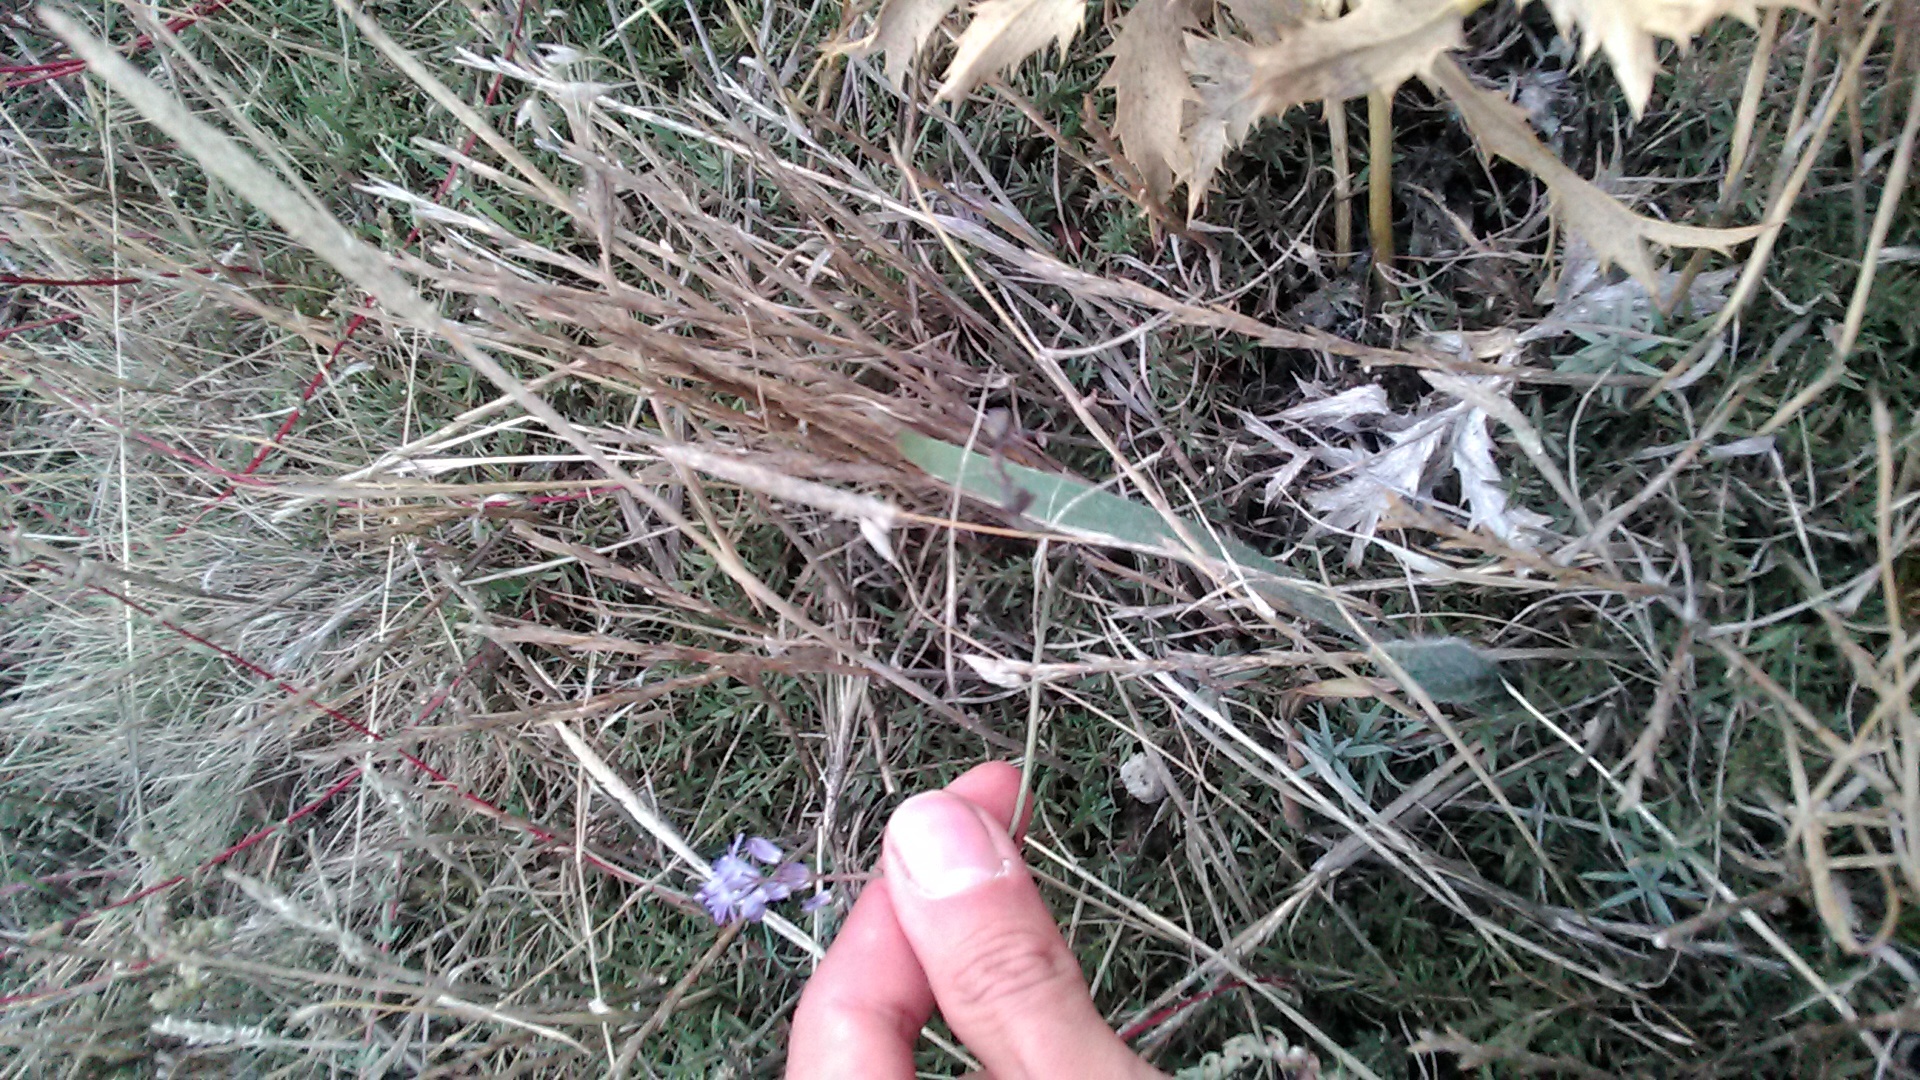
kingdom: Plantae
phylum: Tracheophyta
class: Liliopsida
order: Asparagales
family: Asparagaceae
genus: Prospero
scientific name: Prospero autumnale
